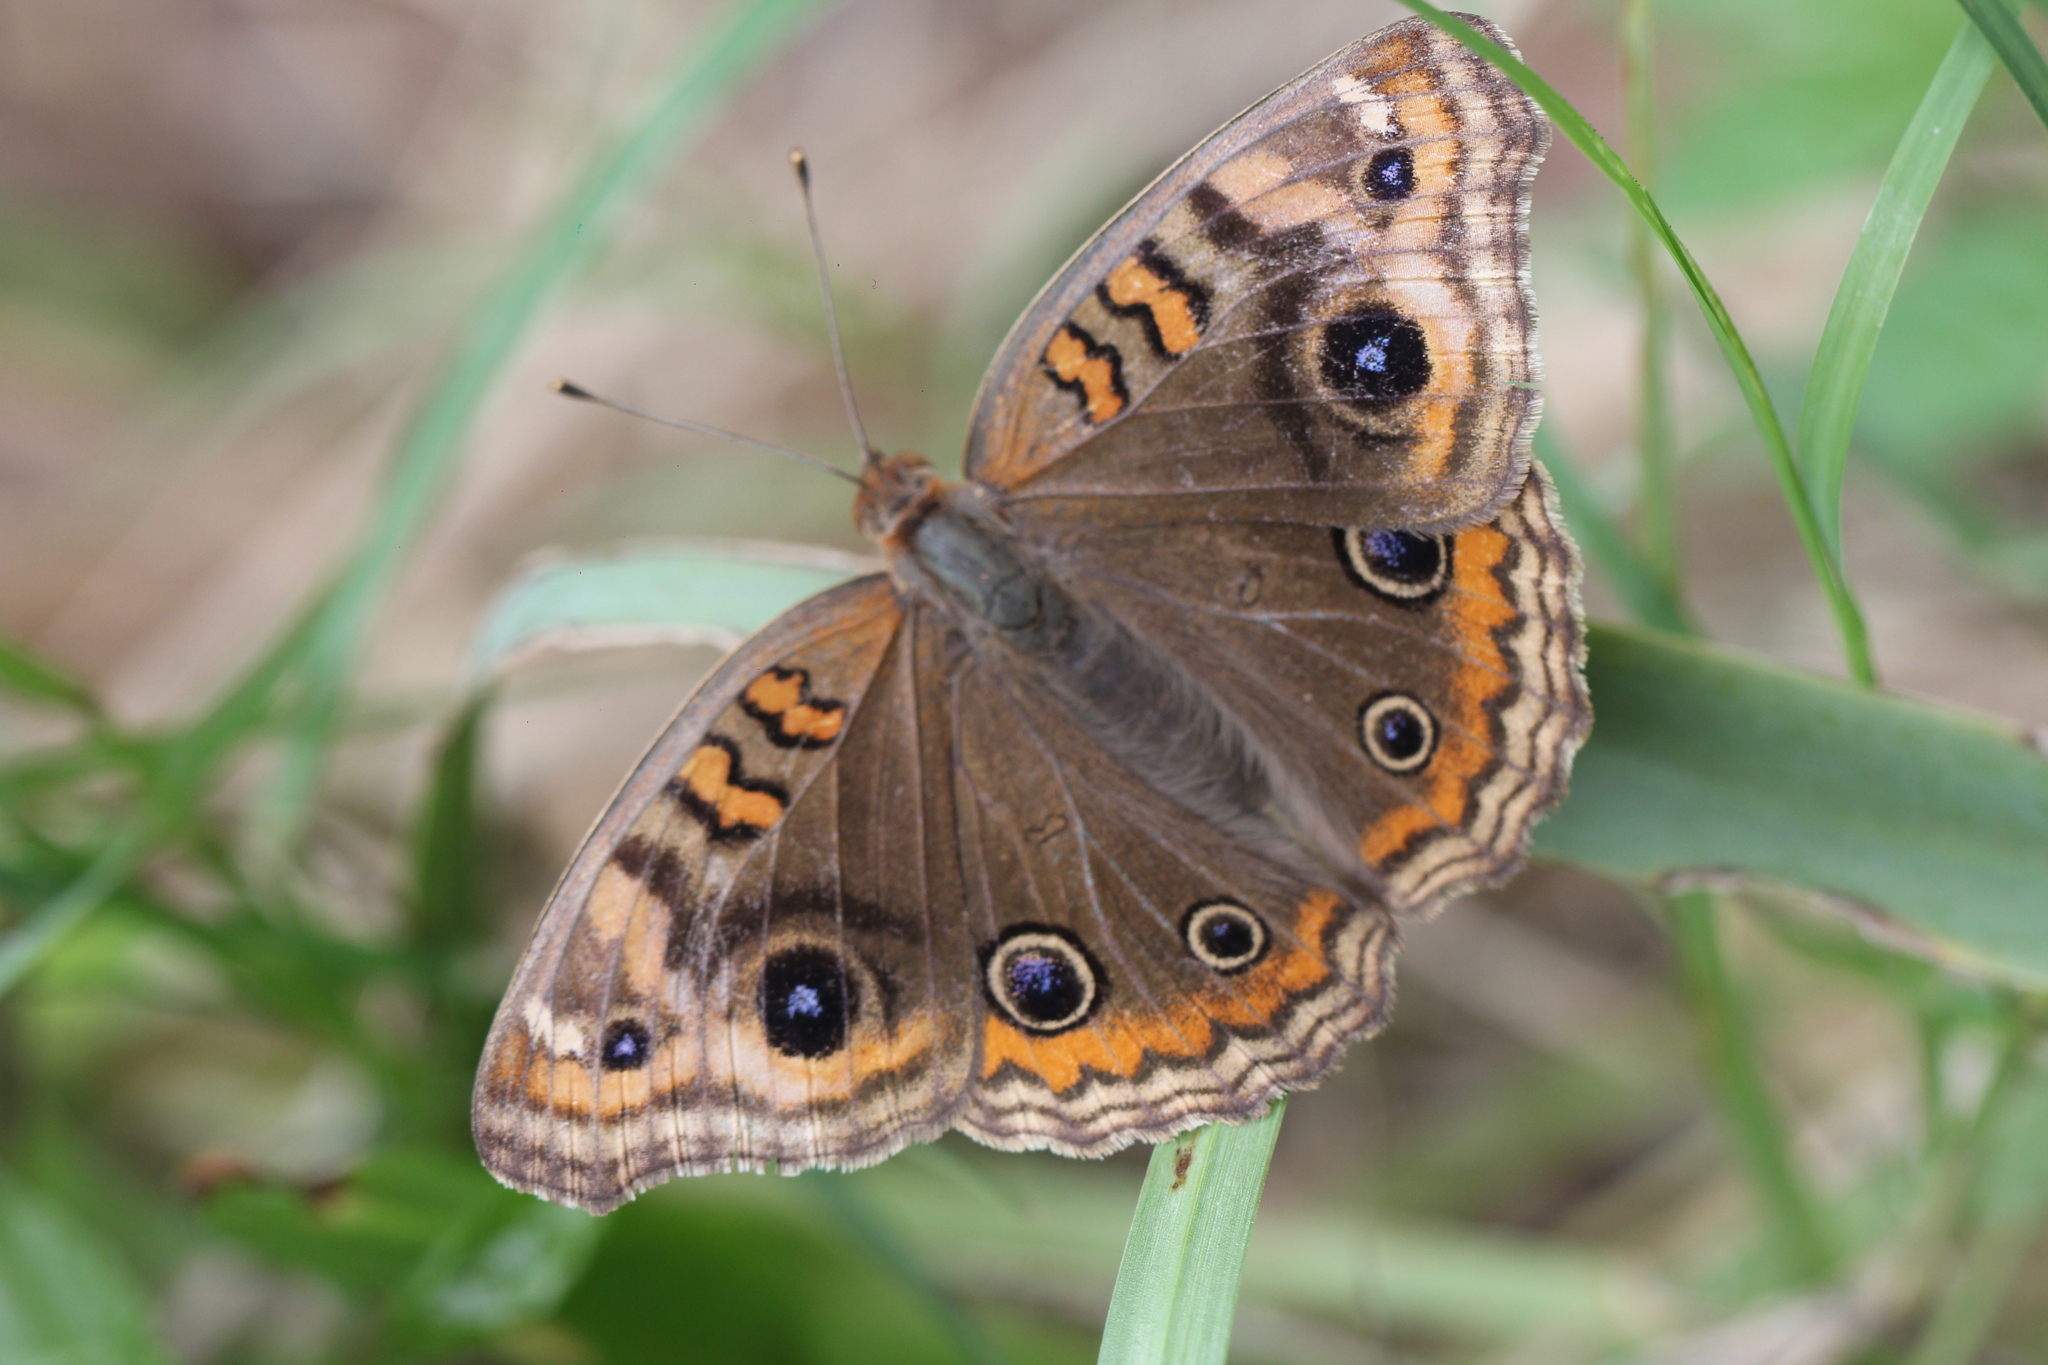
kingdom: Animalia
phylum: Arthropoda
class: Insecta
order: Lepidoptera
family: Nymphalidae
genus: Junonia
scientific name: Junonia lavinia
